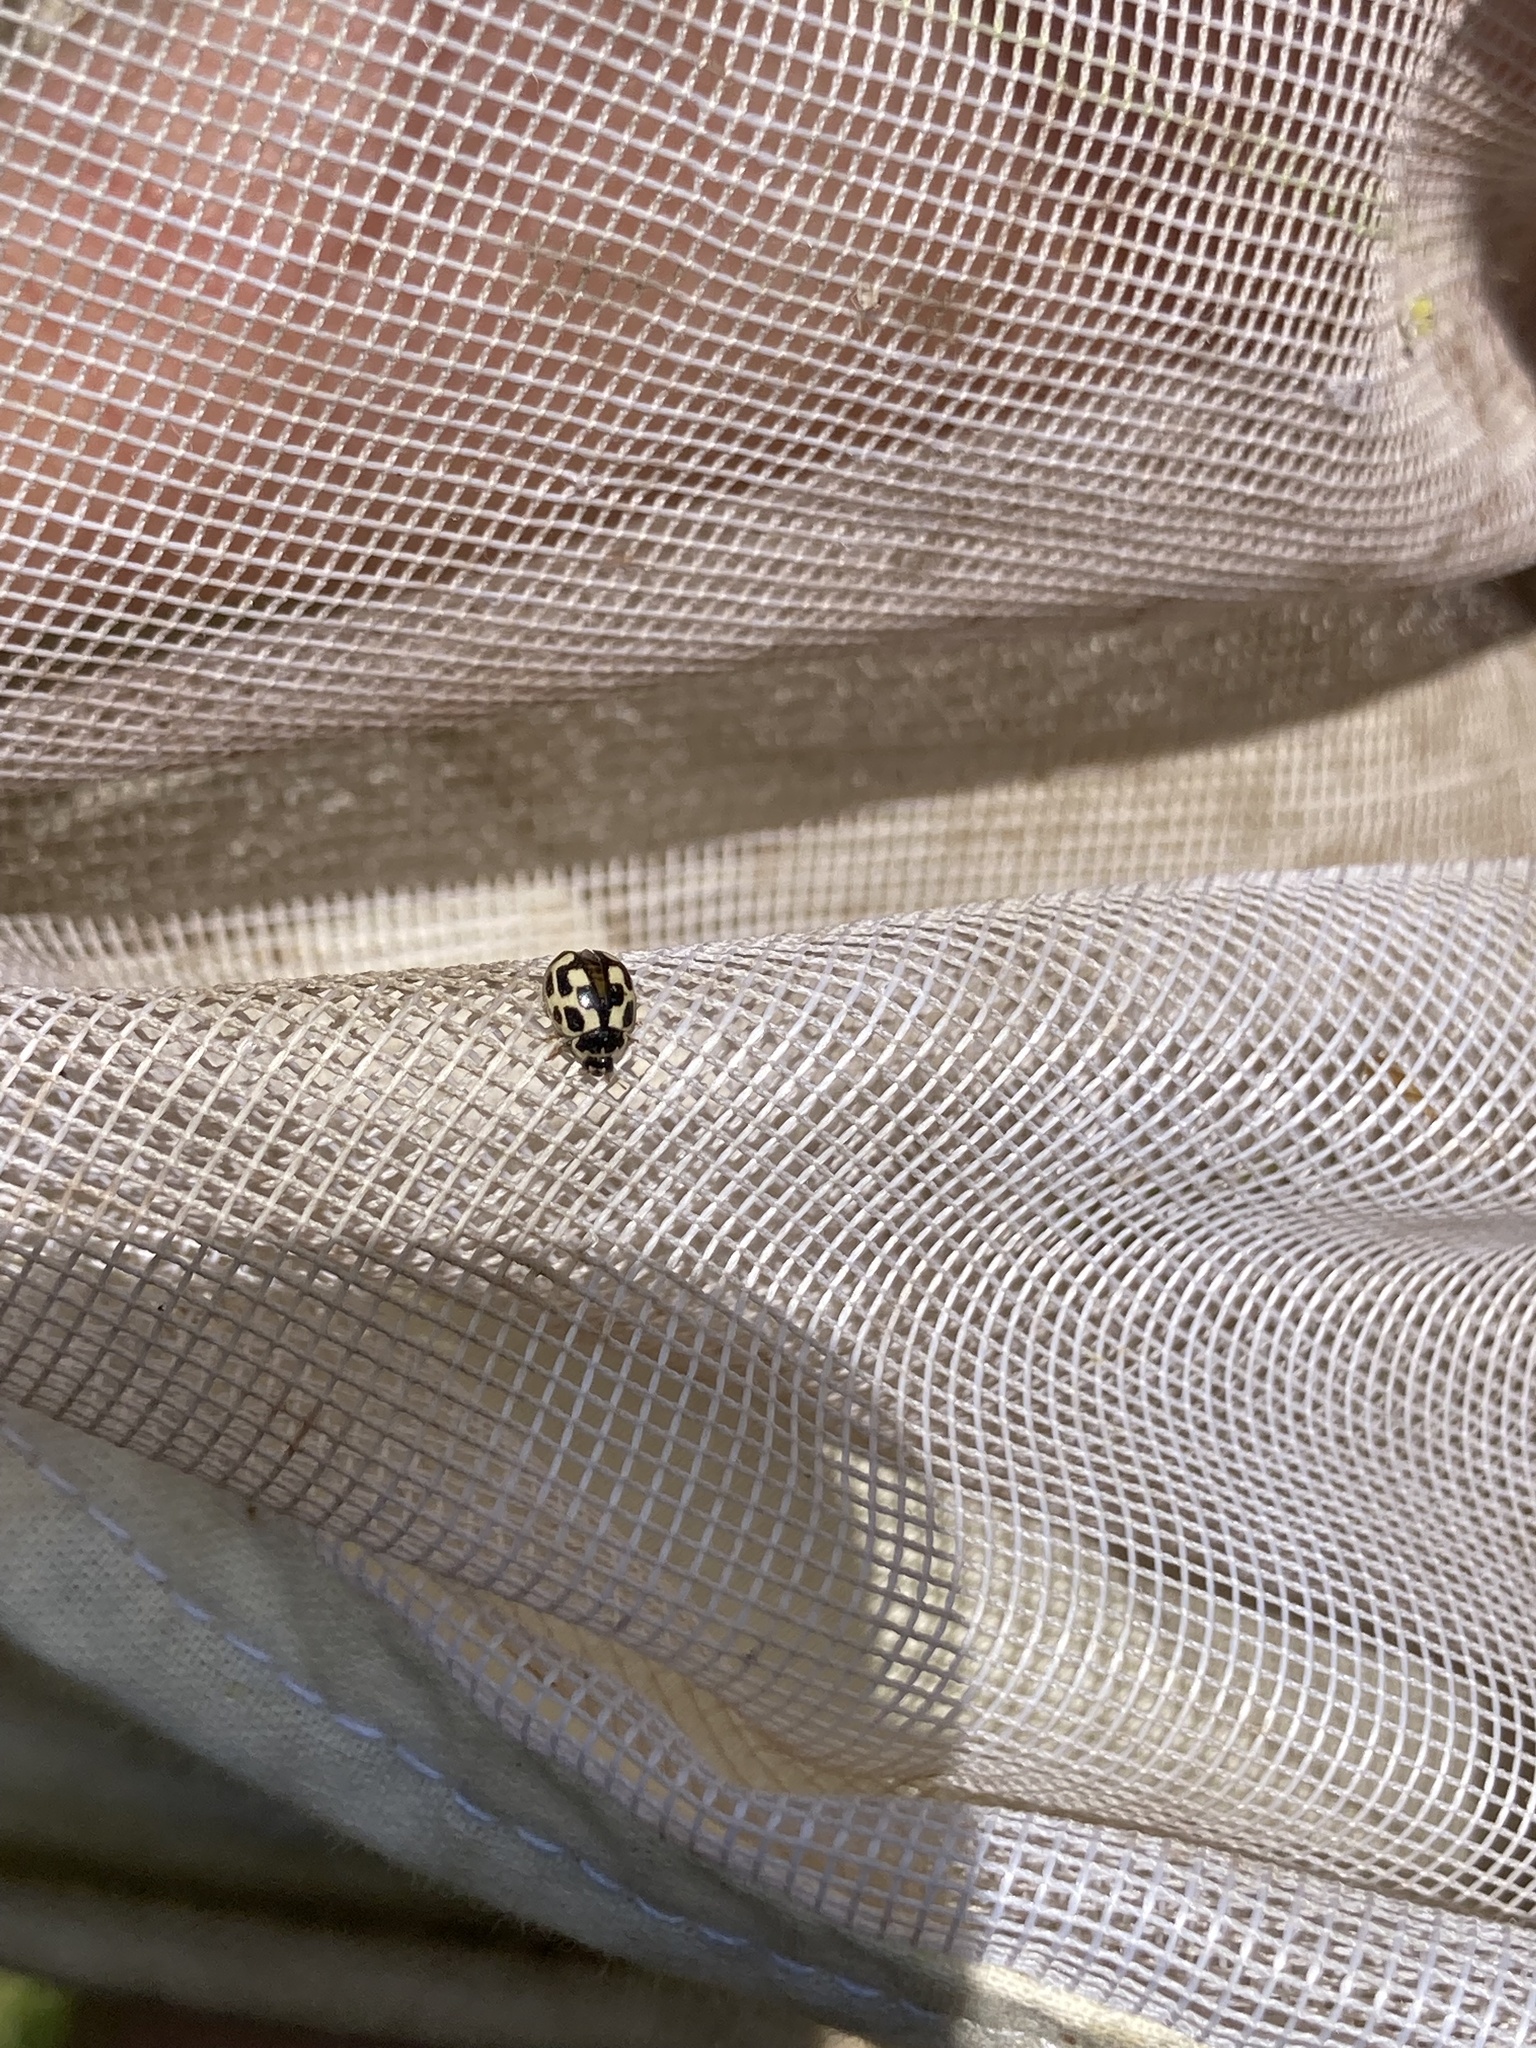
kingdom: Animalia
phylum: Arthropoda
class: Insecta
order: Coleoptera
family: Coccinellidae
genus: Propylaea
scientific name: Propylaea quatuordecimpunctata
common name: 14-spotted ladybird beetle
